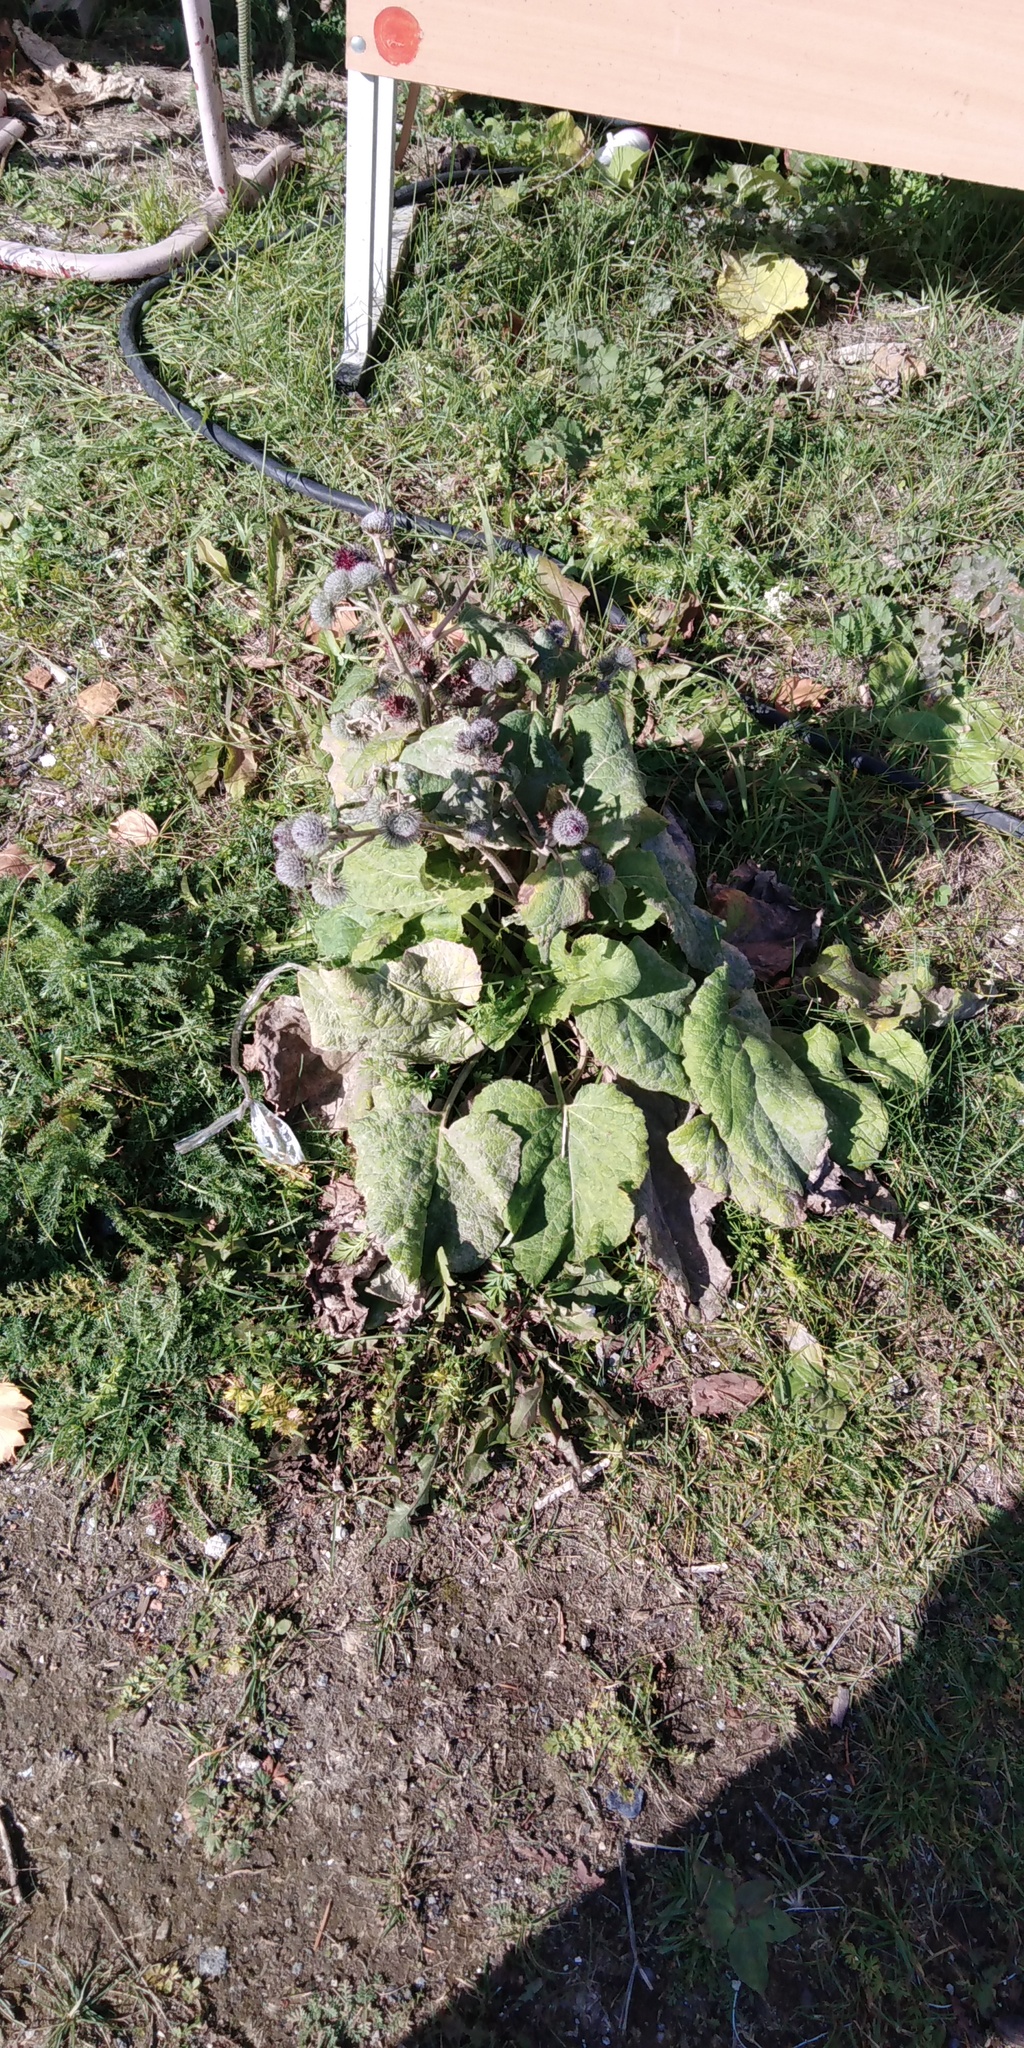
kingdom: Plantae
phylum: Tracheophyta
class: Magnoliopsida
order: Asterales
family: Asteraceae
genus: Arctium
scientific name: Arctium tomentosum
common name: Woolly burdock
